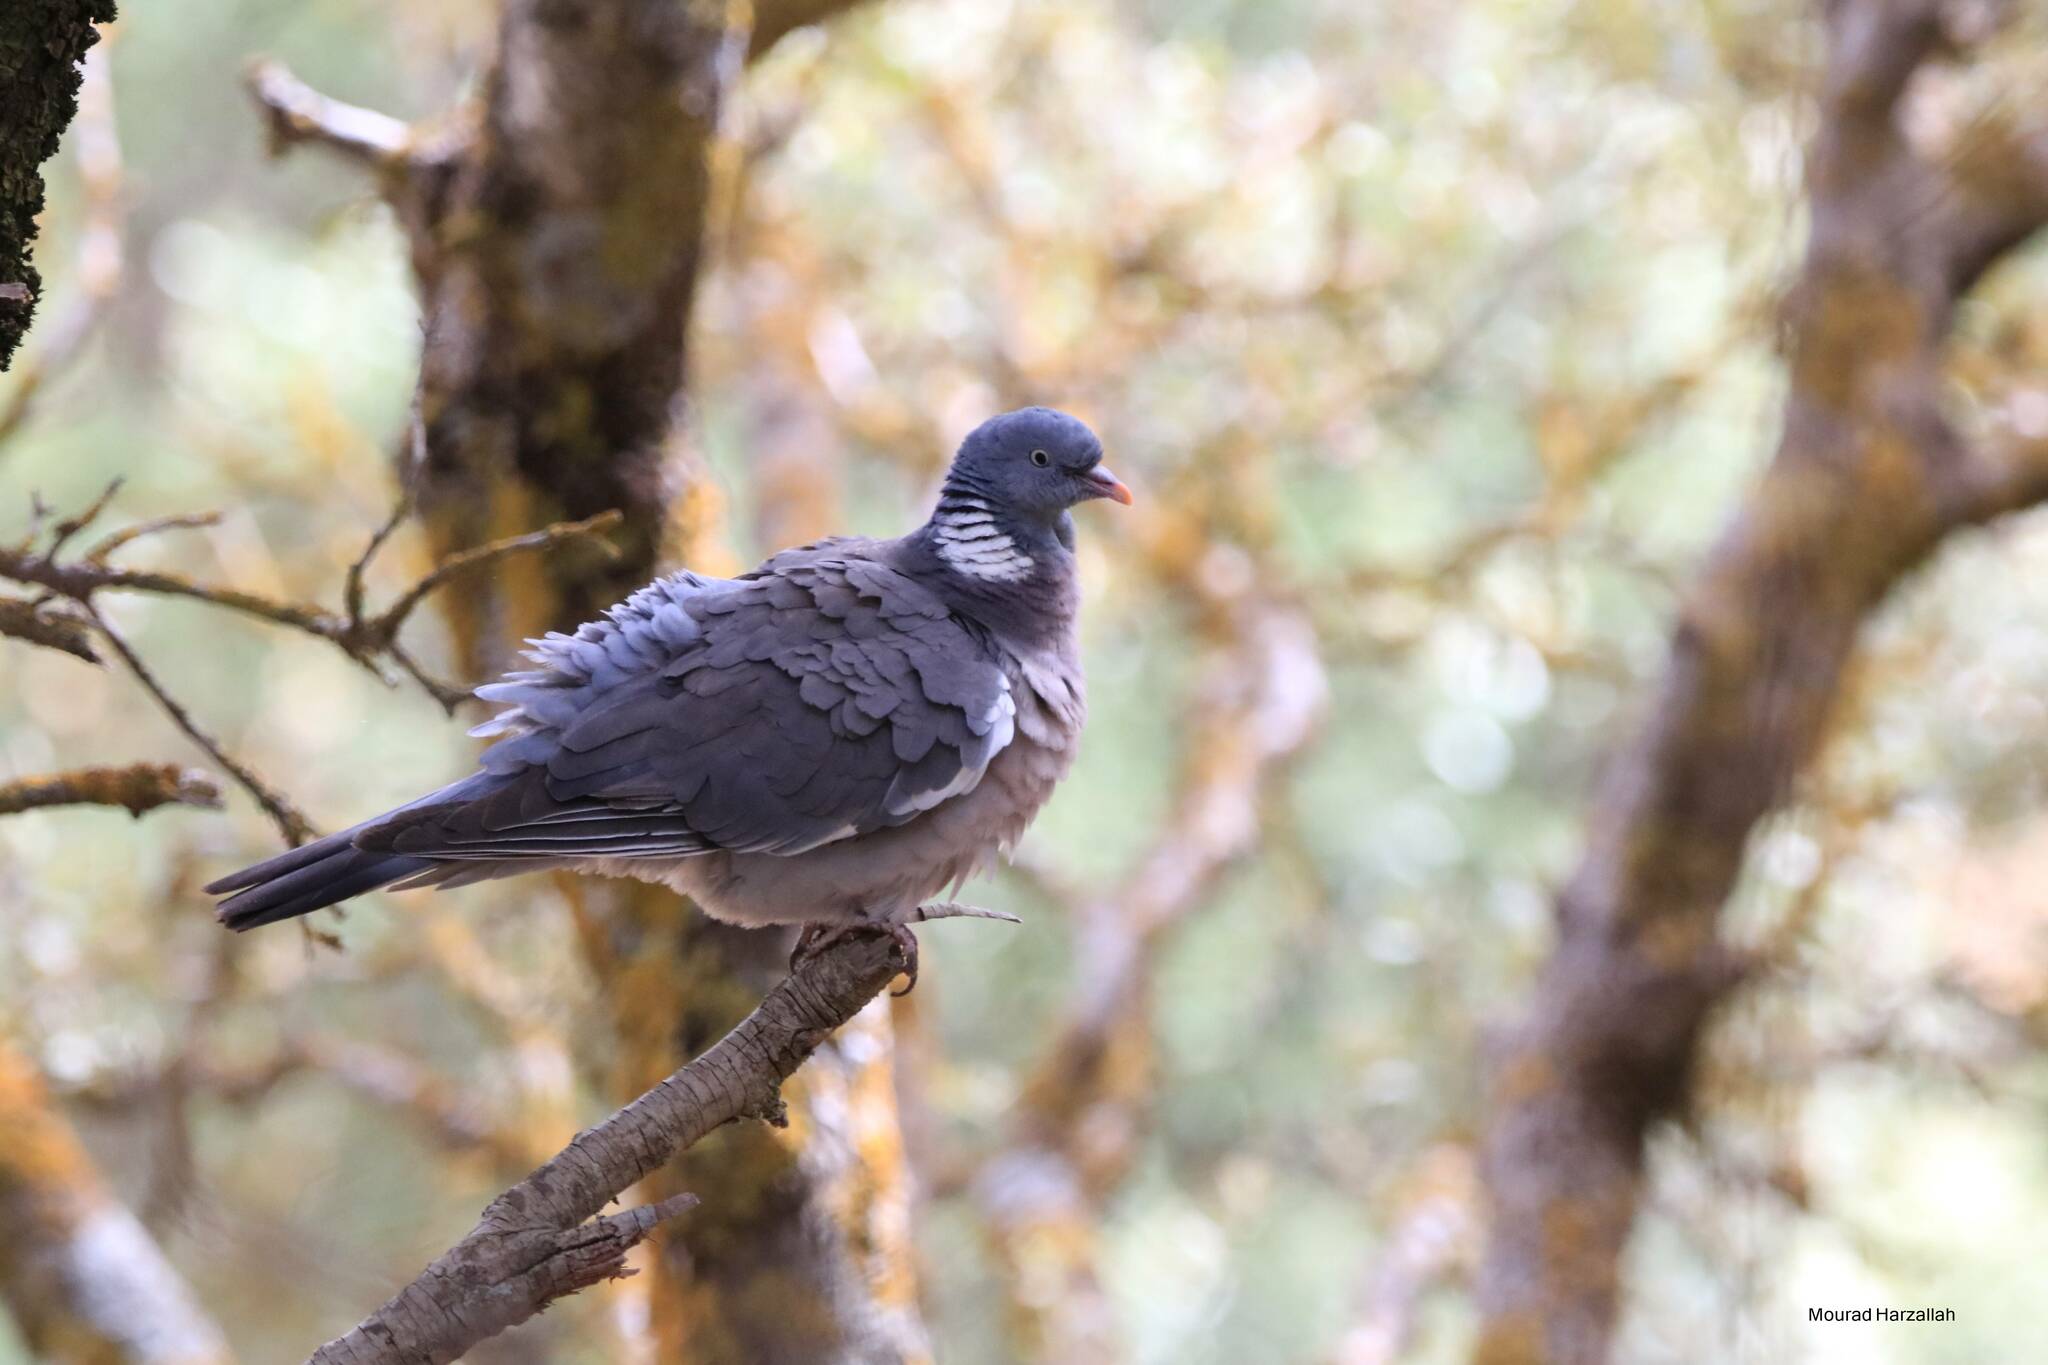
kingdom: Animalia
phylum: Chordata
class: Aves
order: Columbiformes
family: Columbidae
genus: Columba
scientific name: Columba palumbus
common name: Common wood pigeon
